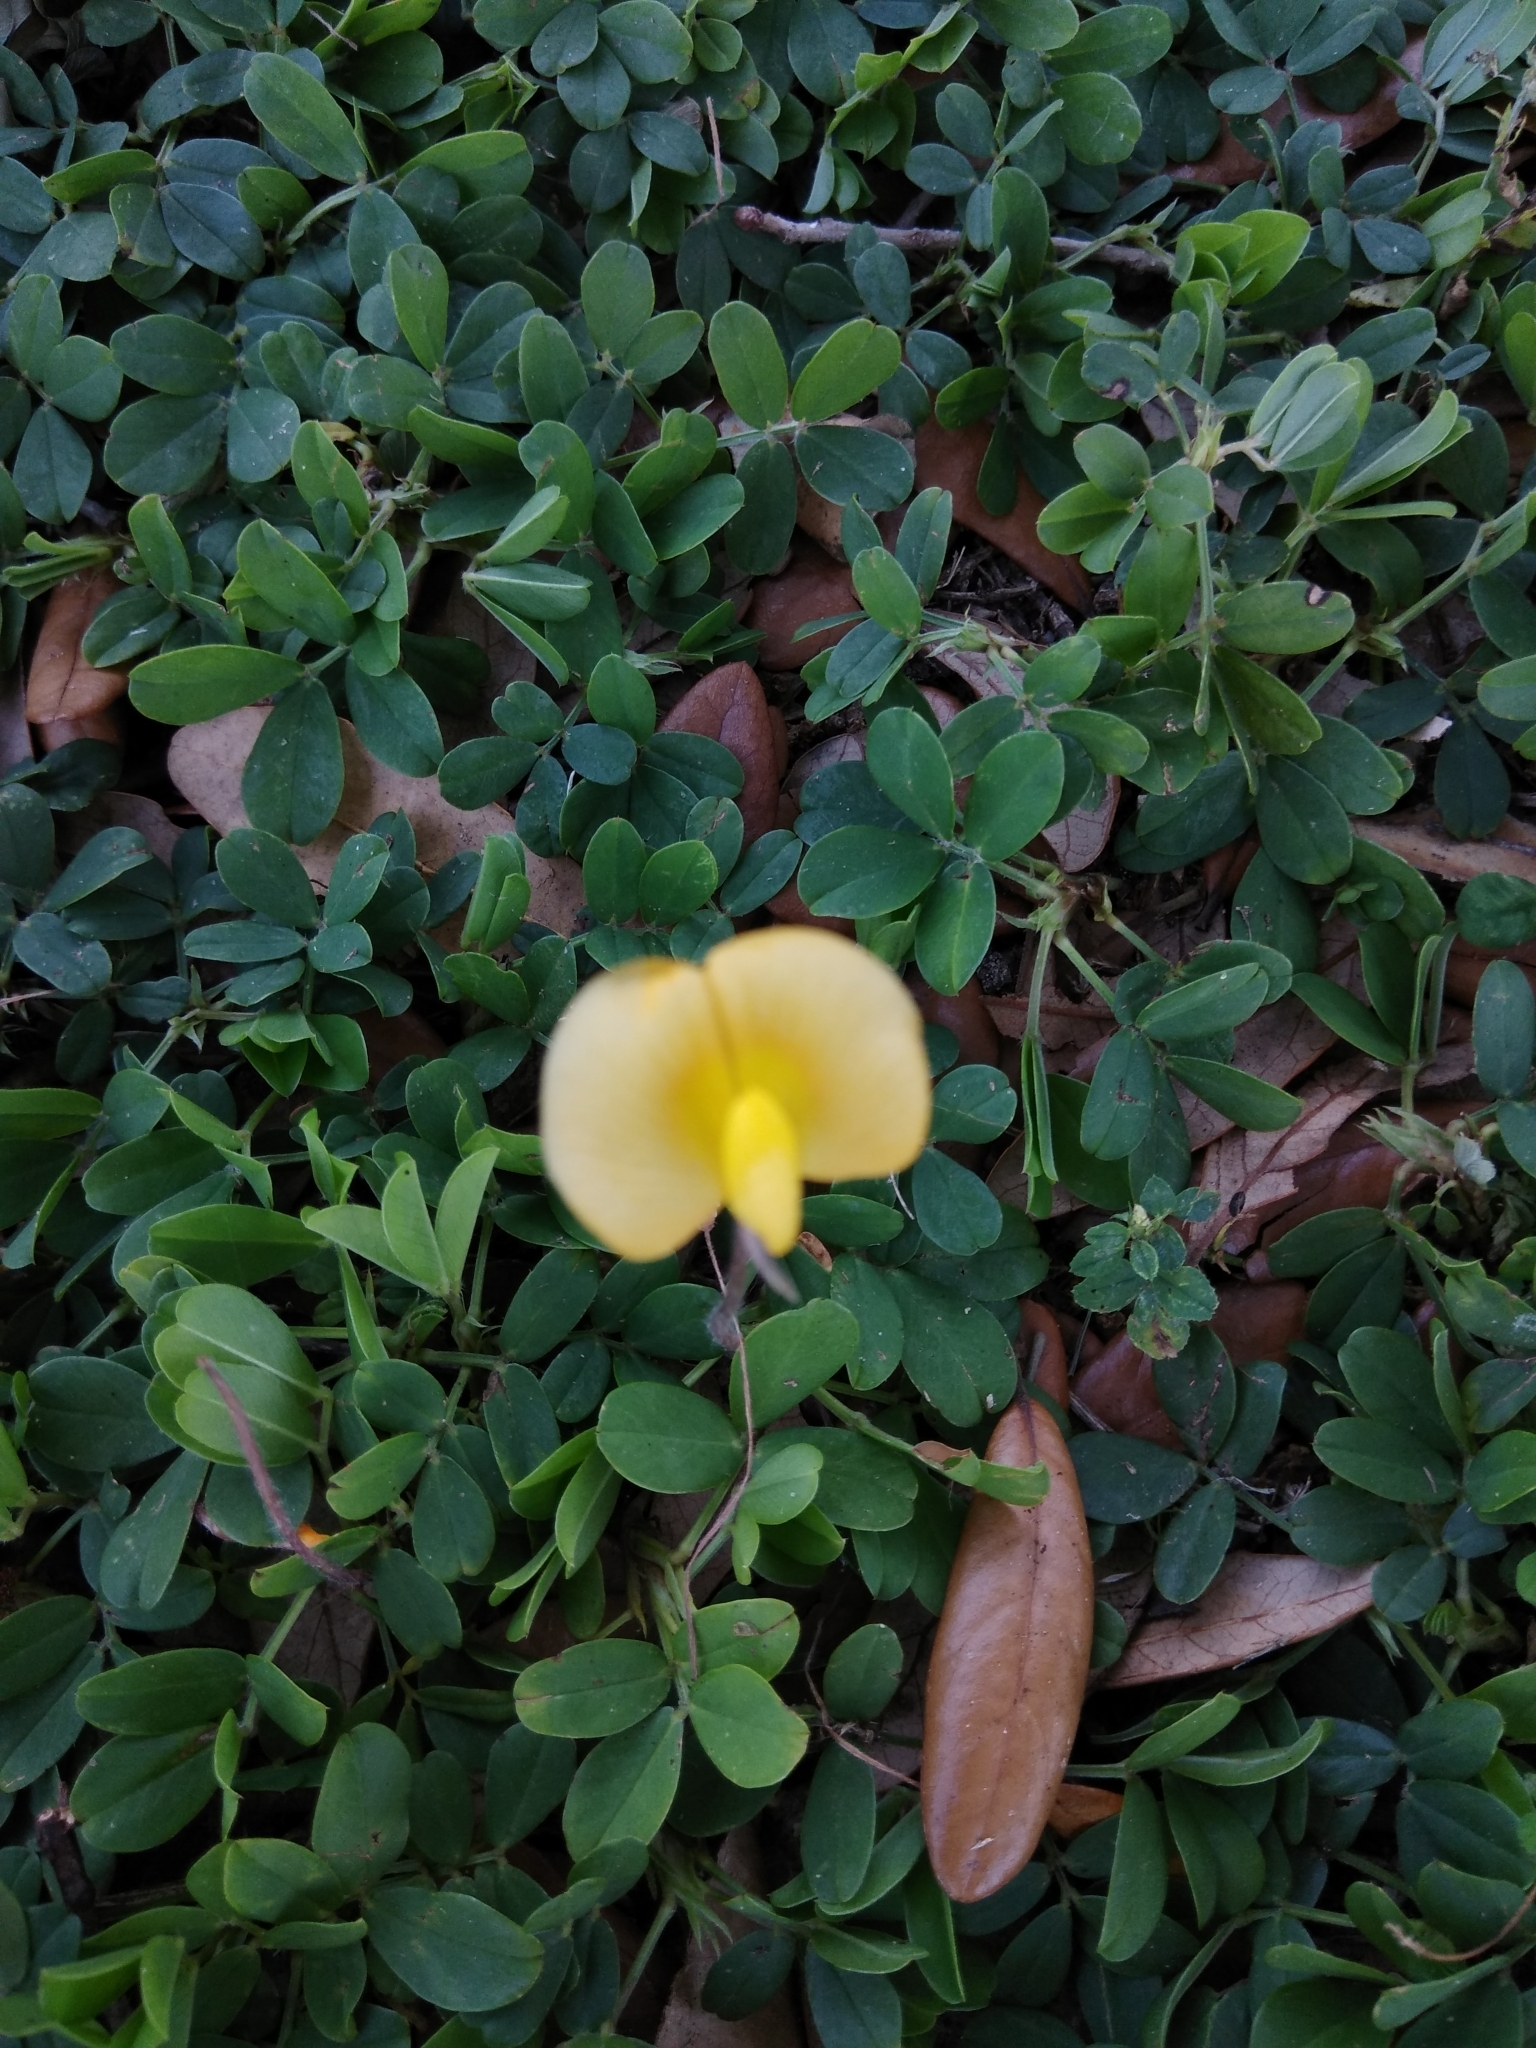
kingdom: Plantae
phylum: Tracheophyta
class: Magnoliopsida
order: Fabales
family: Fabaceae
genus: Vigna
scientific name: Vigna luteola
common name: Hairypod cowpea
